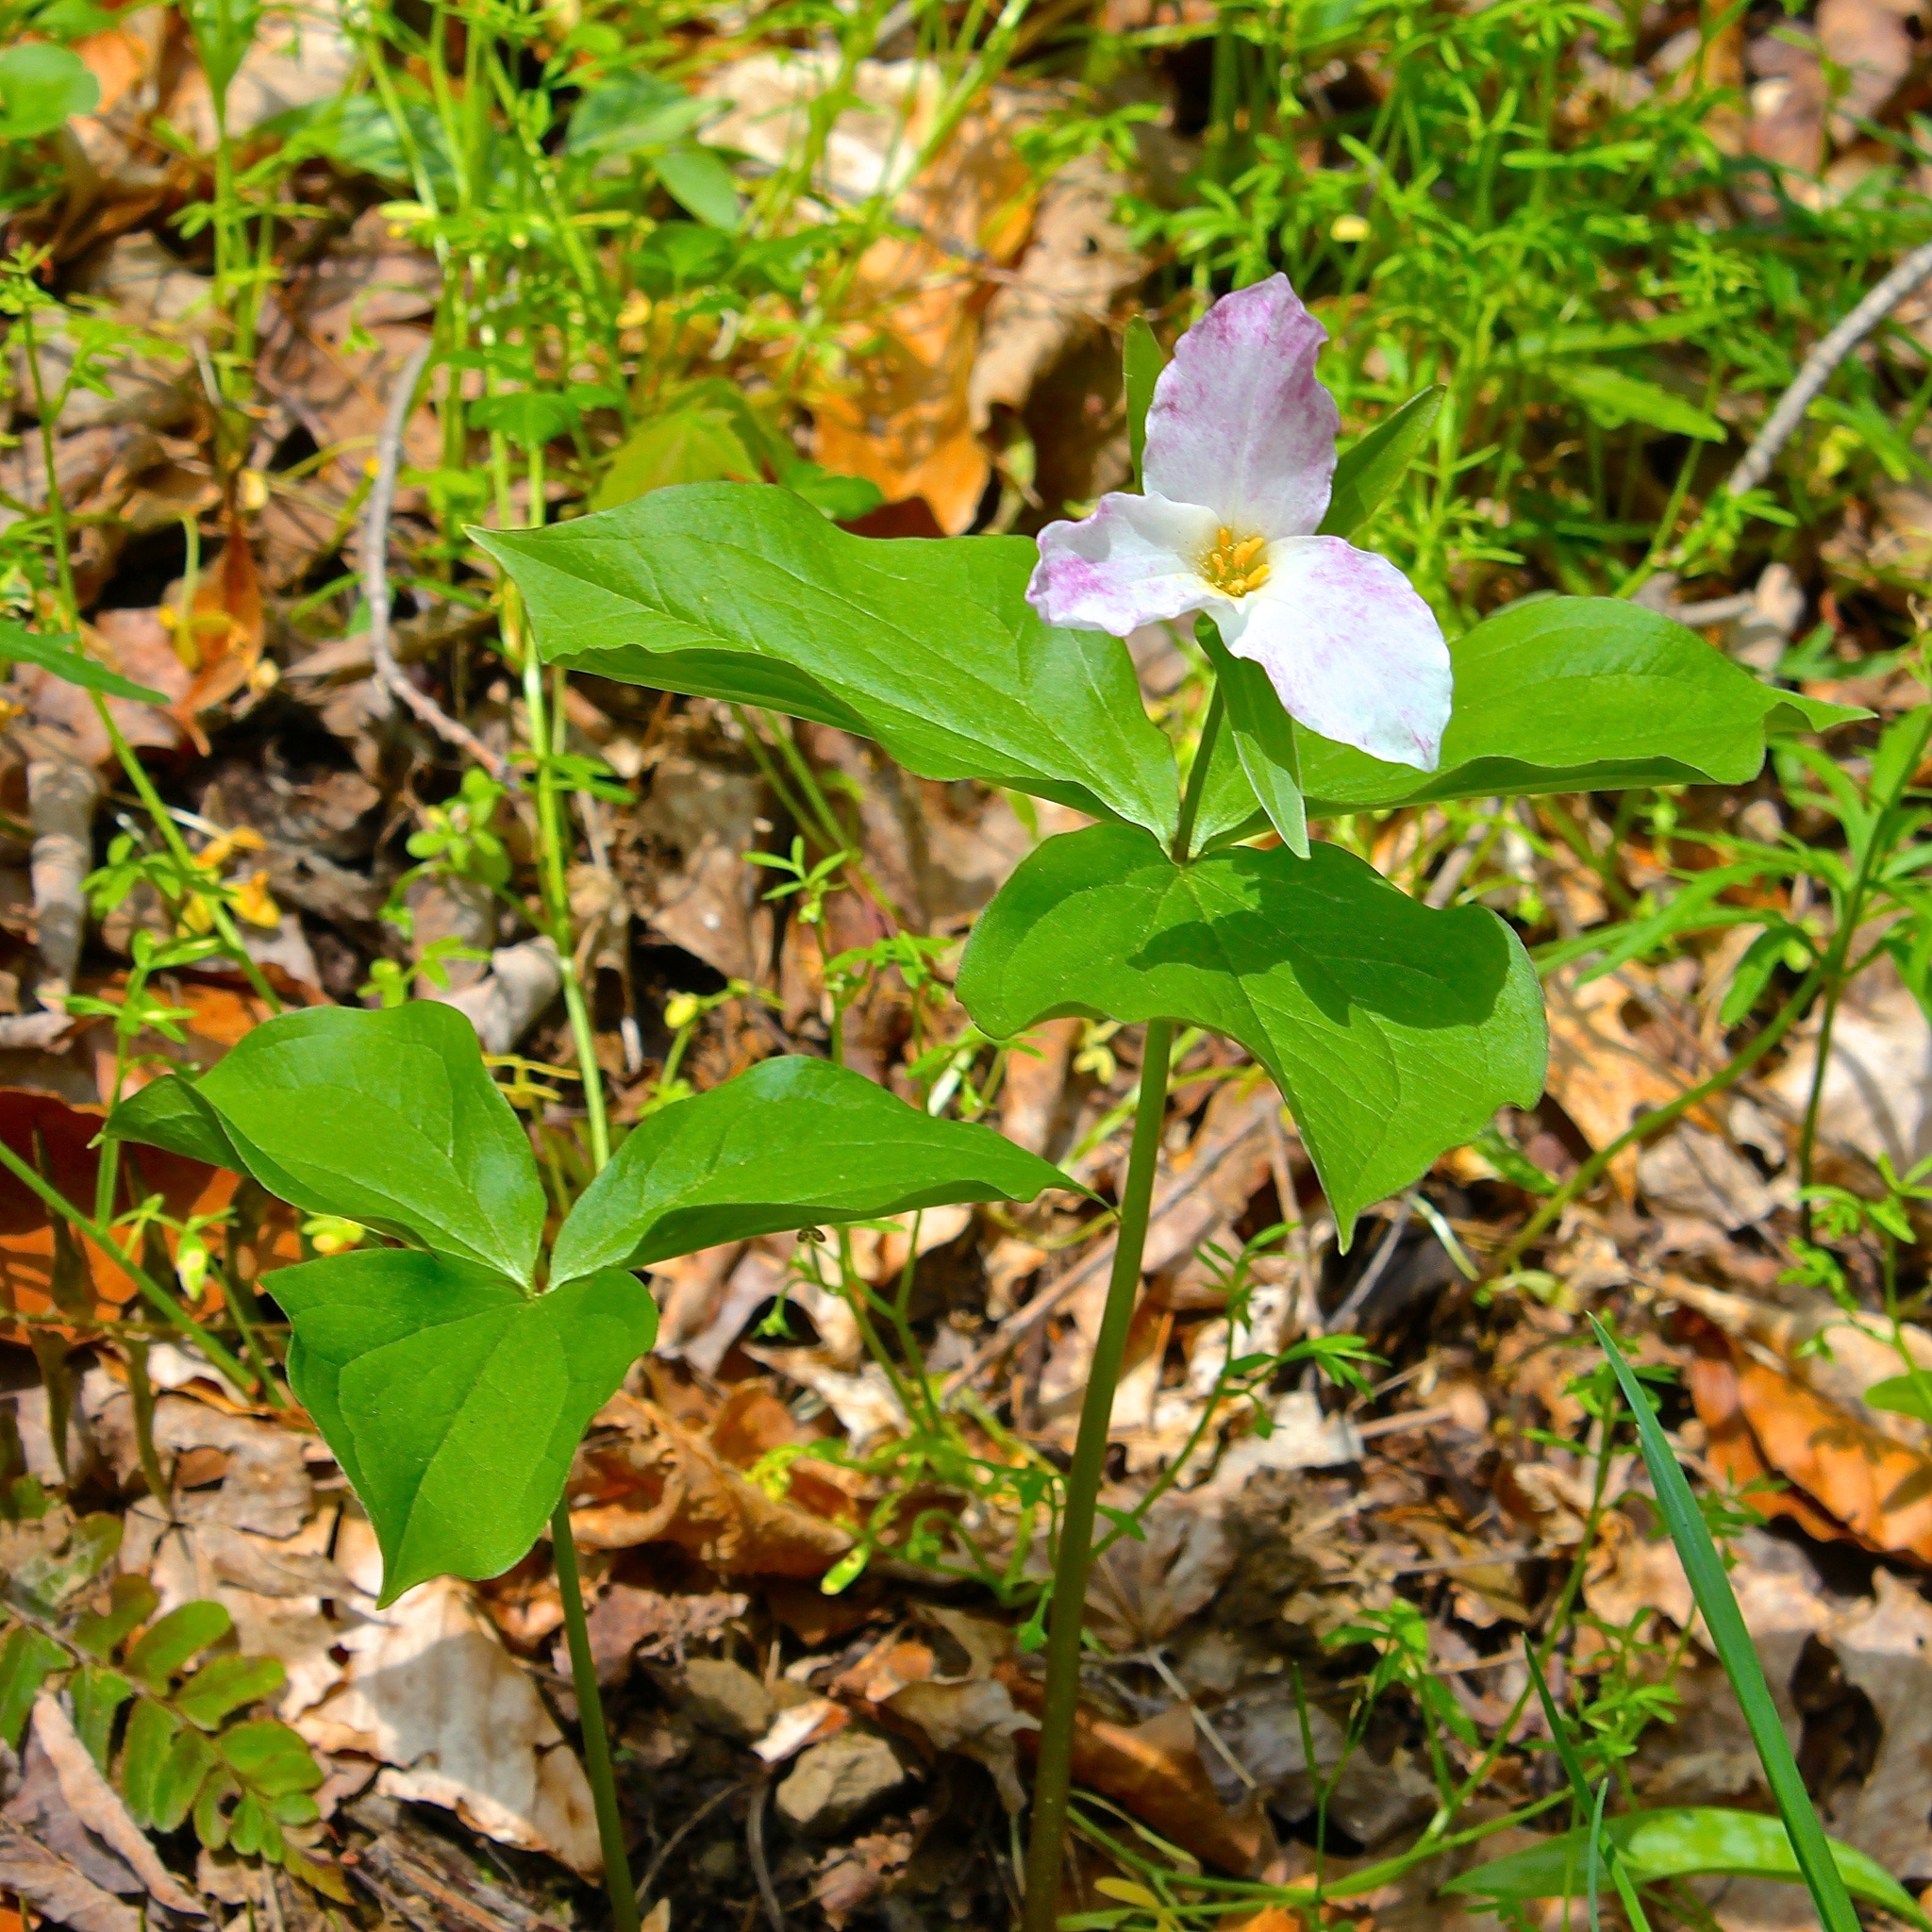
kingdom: Plantae
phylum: Tracheophyta
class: Liliopsida
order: Liliales
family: Melanthiaceae
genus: Trillium
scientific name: Trillium grandiflorum
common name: Great white trillium
